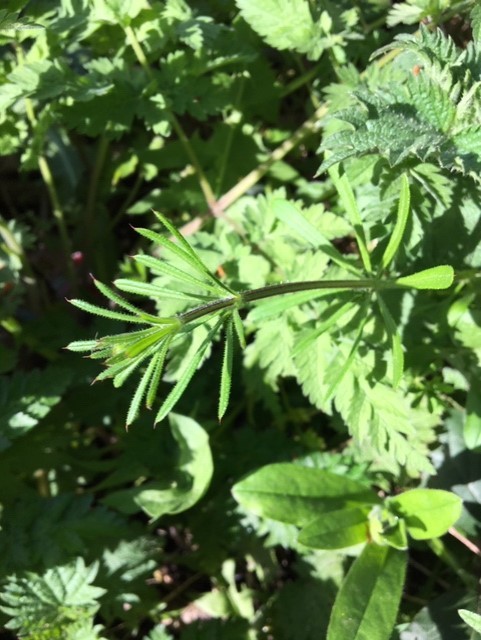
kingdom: Plantae
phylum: Tracheophyta
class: Magnoliopsida
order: Gentianales
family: Rubiaceae
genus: Galium
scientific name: Galium aparine
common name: Cleavers
